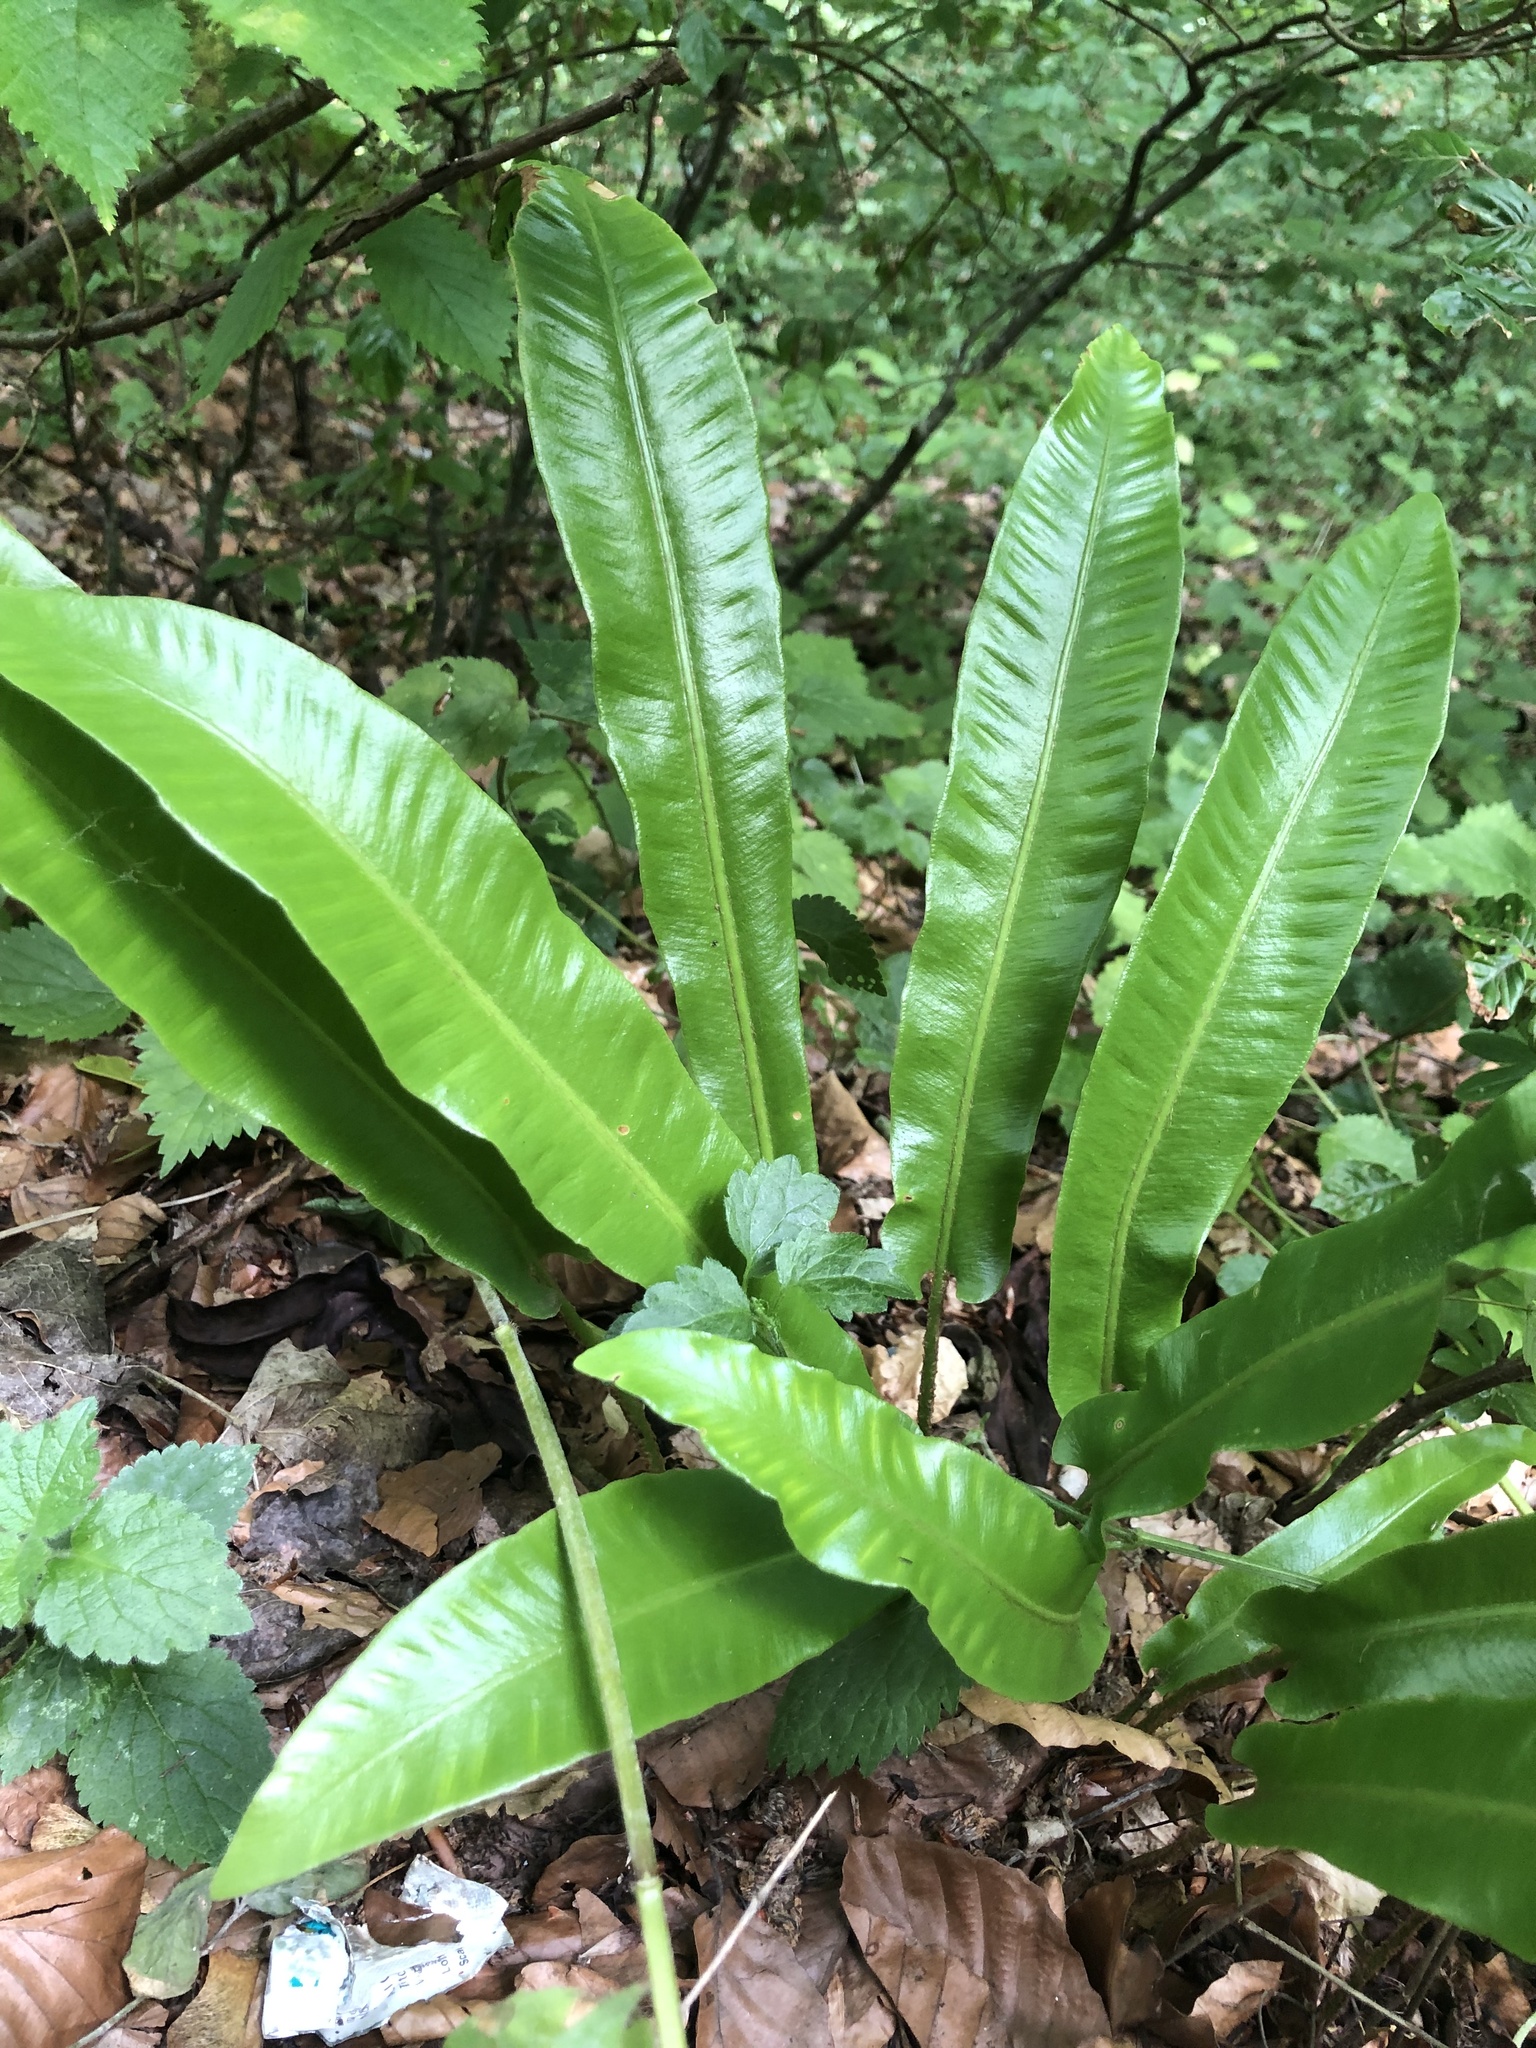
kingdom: Plantae
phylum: Tracheophyta
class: Polypodiopsida
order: Polypodiales
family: Aspleniaceae
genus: Asplenium
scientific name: Asplenium scolopendrium
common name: Hart's-tongue fern
